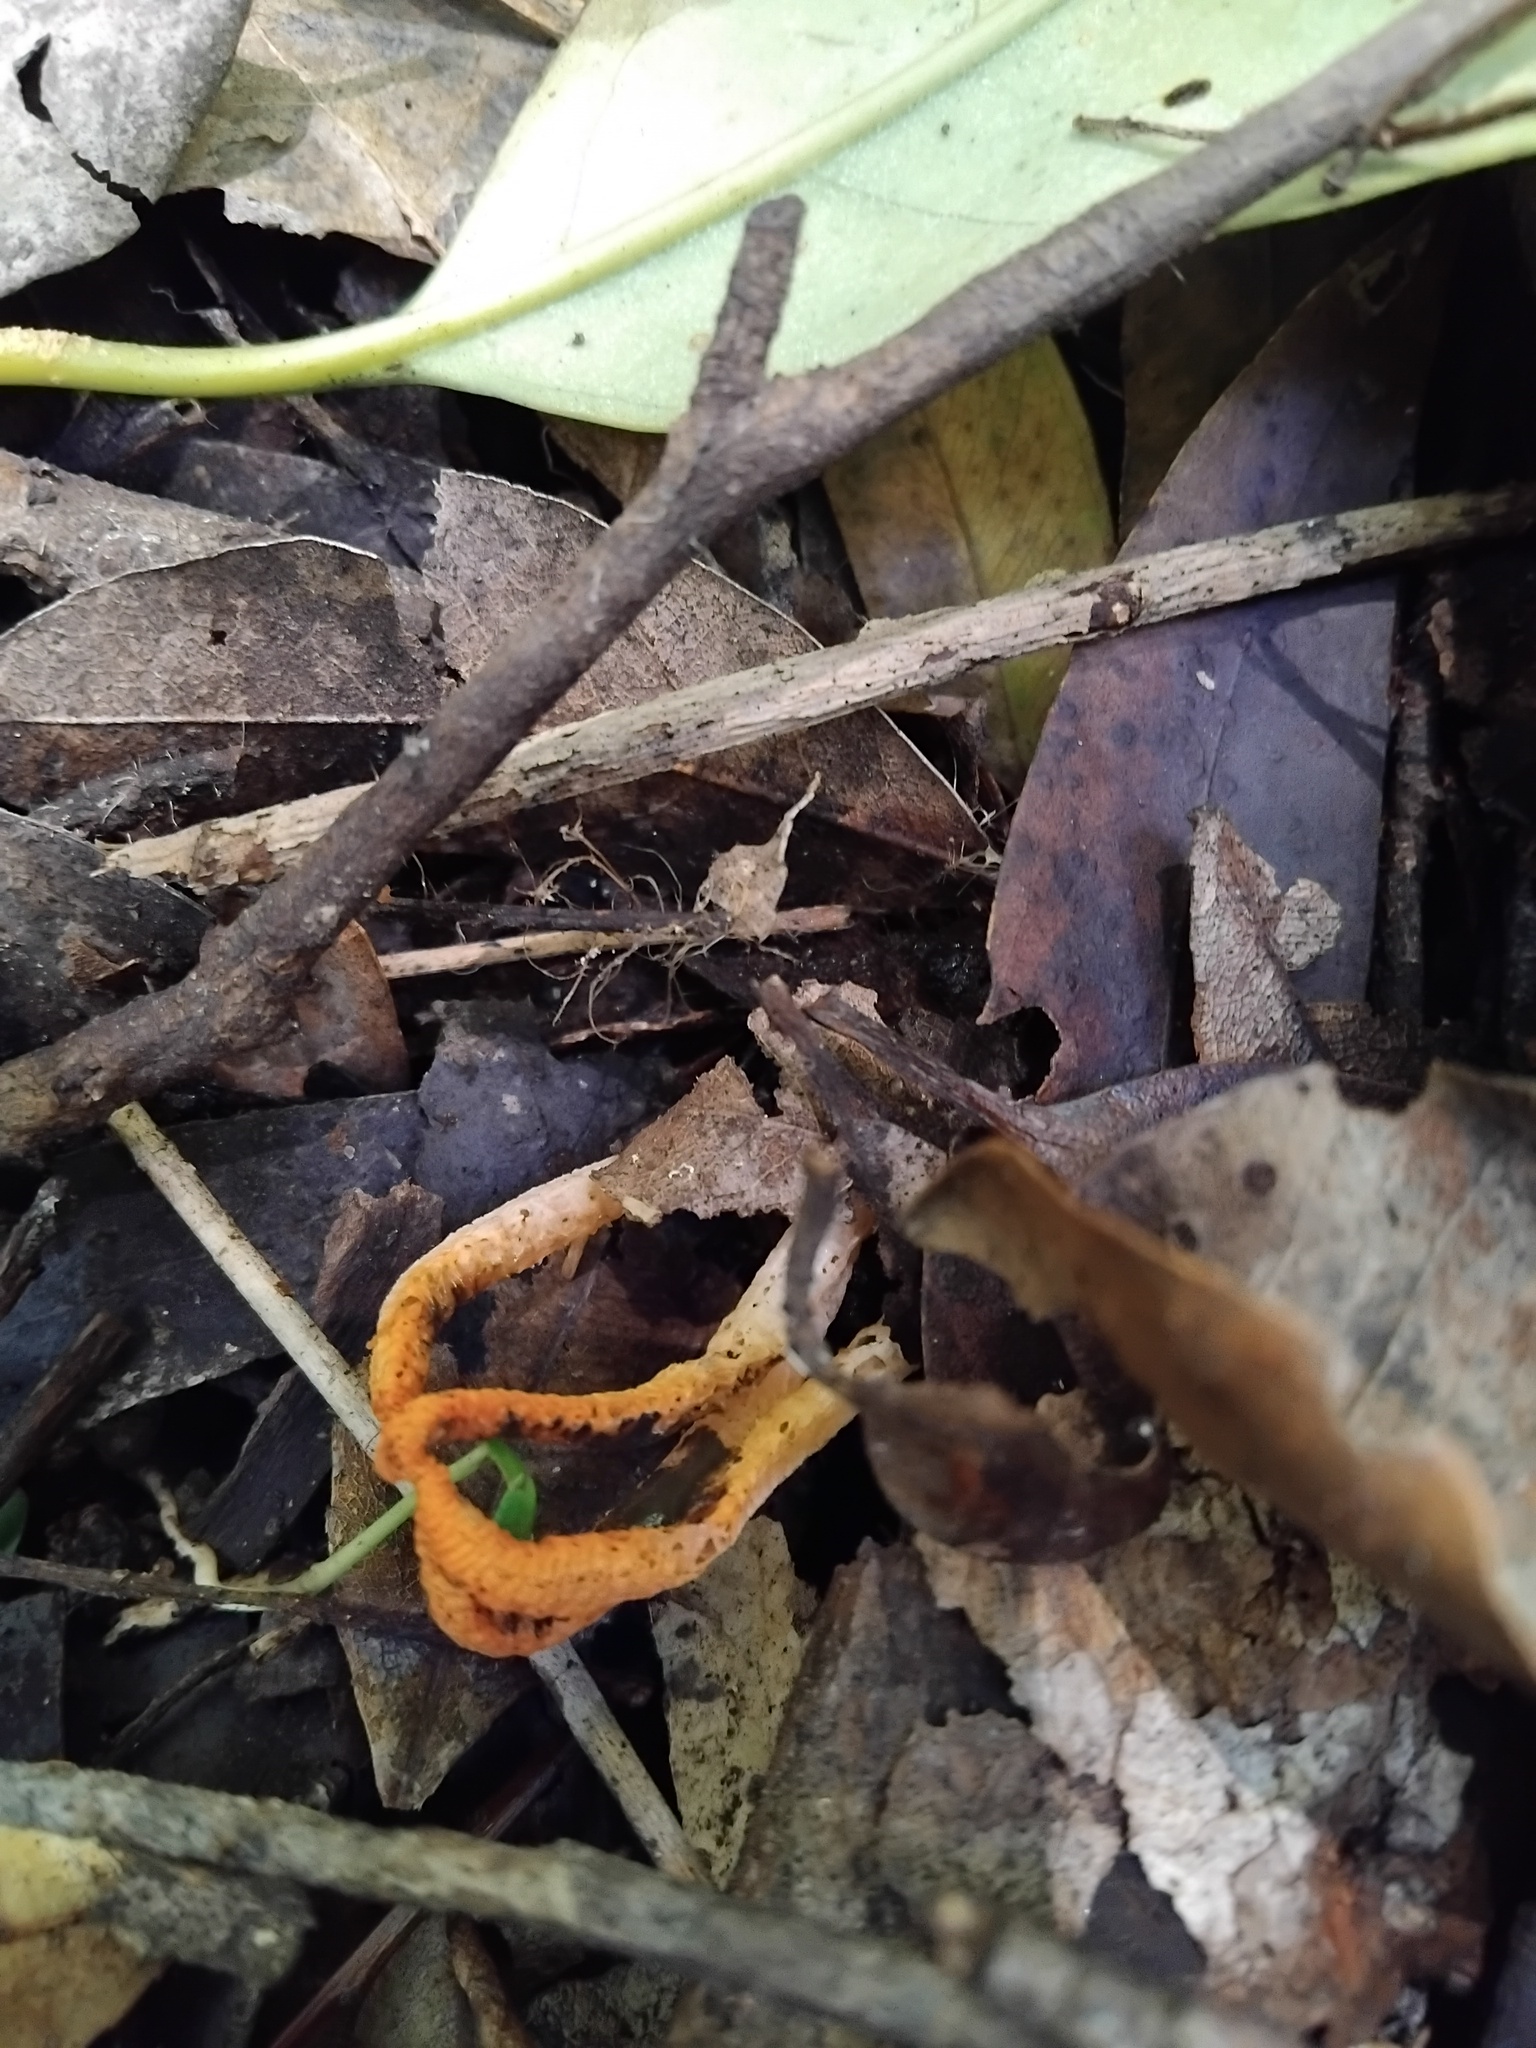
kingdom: Fungi
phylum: Basidiomycota
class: Agaricomycetes
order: Phallales
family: Phallaceae
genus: Pseudocolus
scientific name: Pseudocolus fusiformis
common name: Stinky squid
